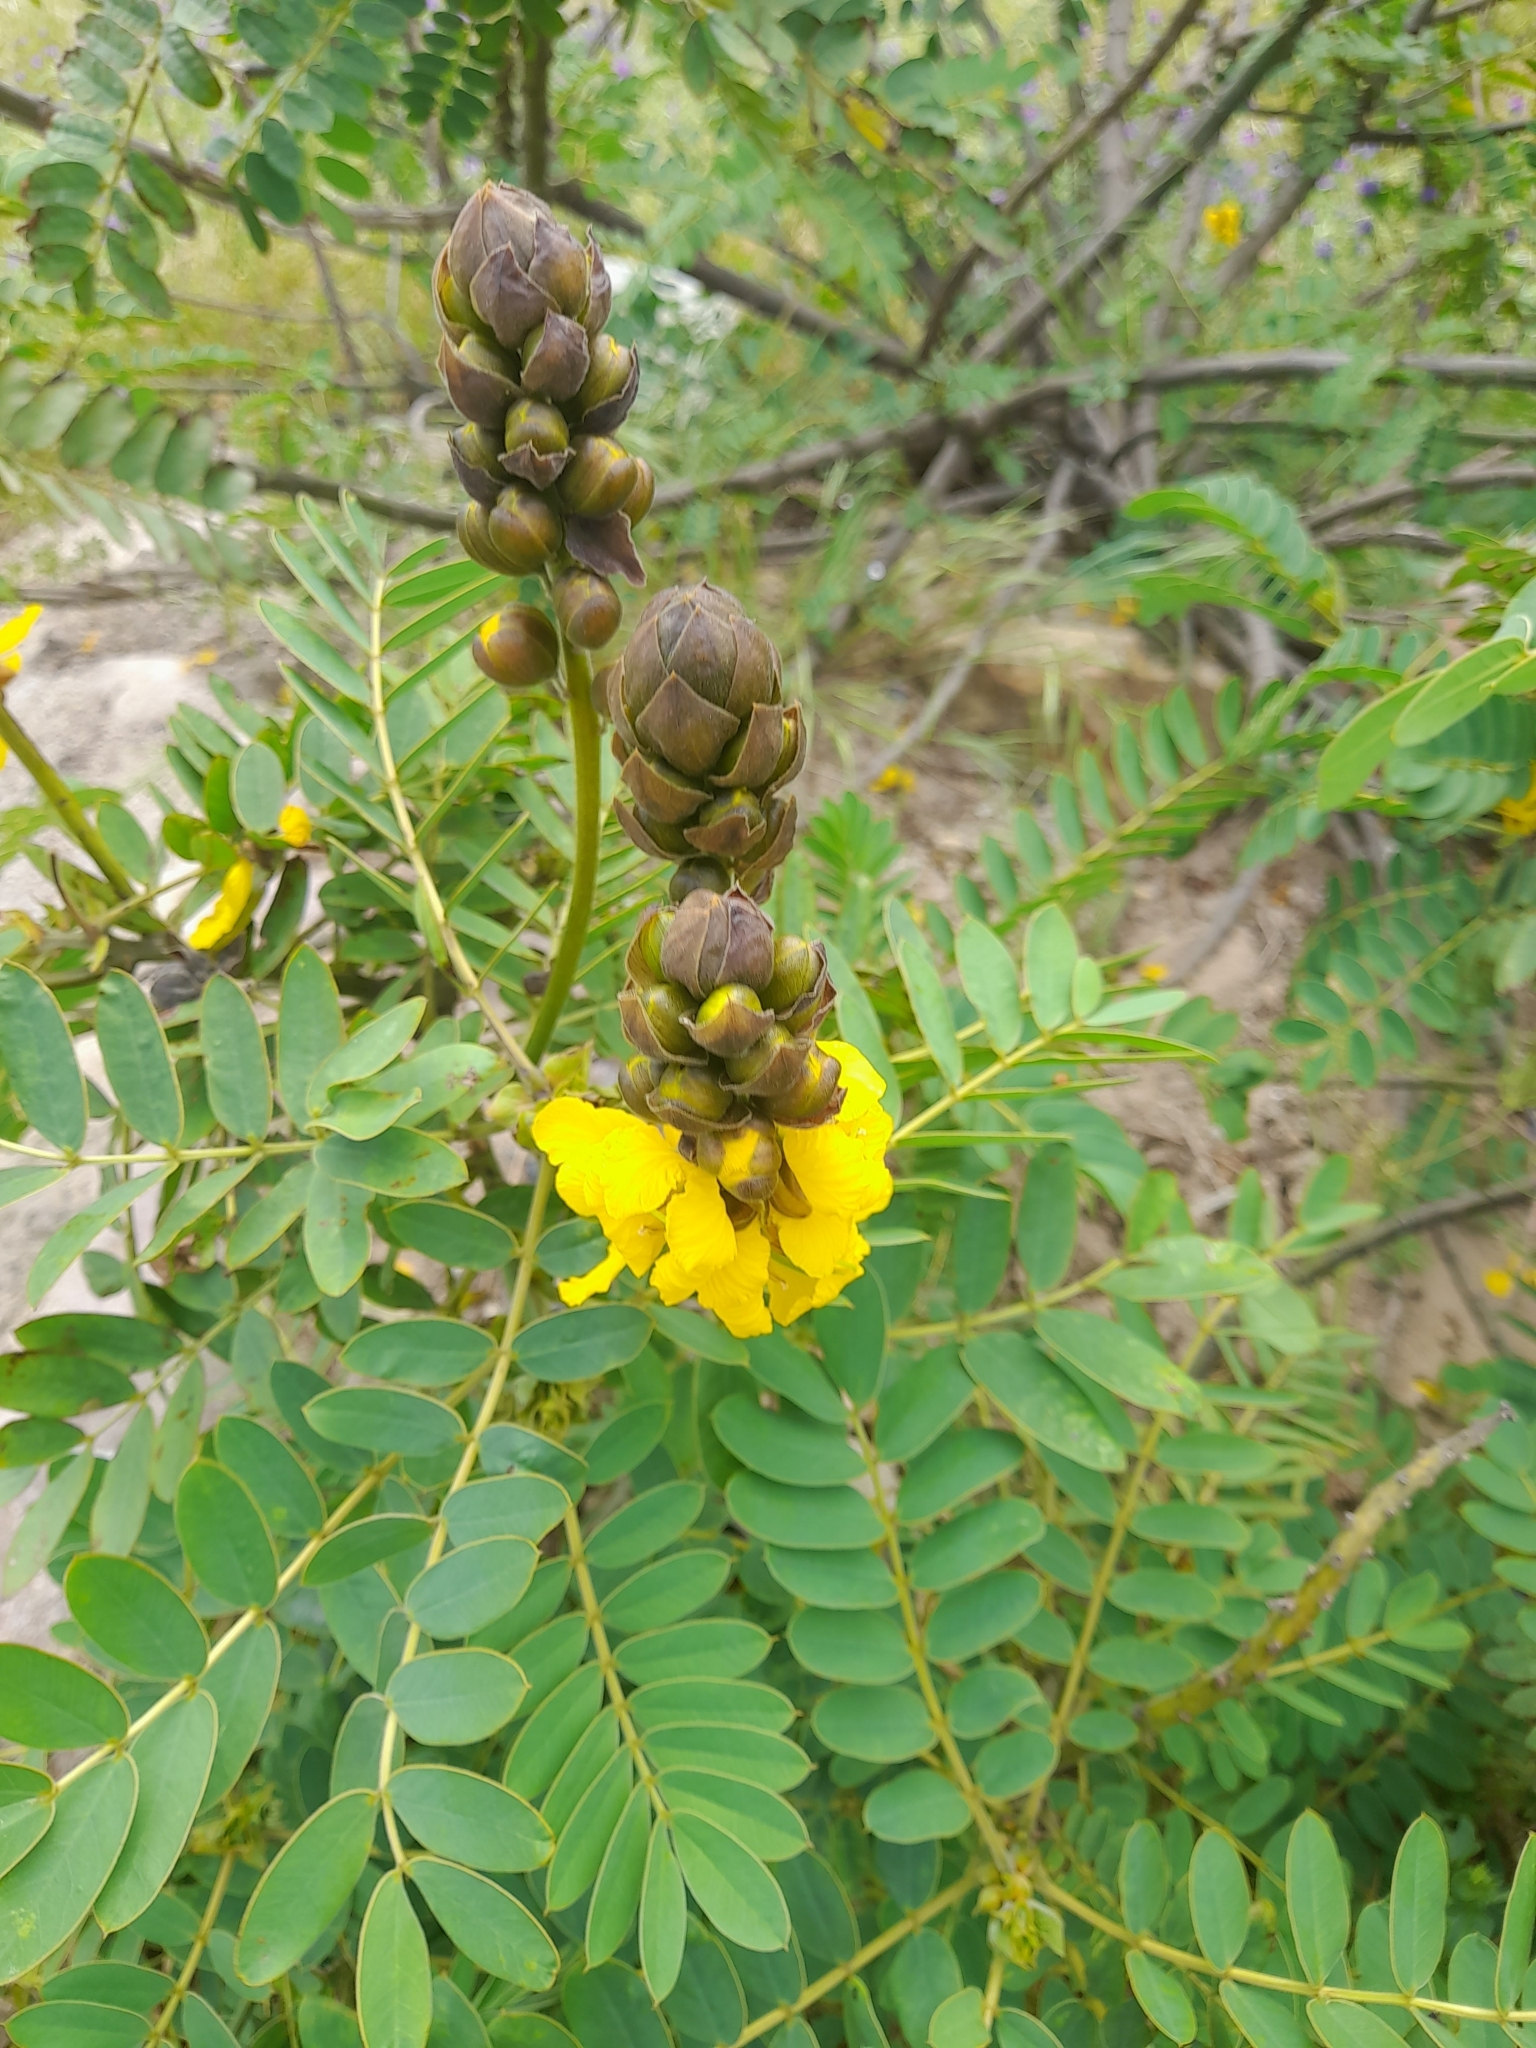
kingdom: Plantae
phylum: Tracheophyta
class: Magnoliopsida
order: Fabales
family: Fabaceae
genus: Senna
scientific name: Senna didymobotrya
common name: African senna
